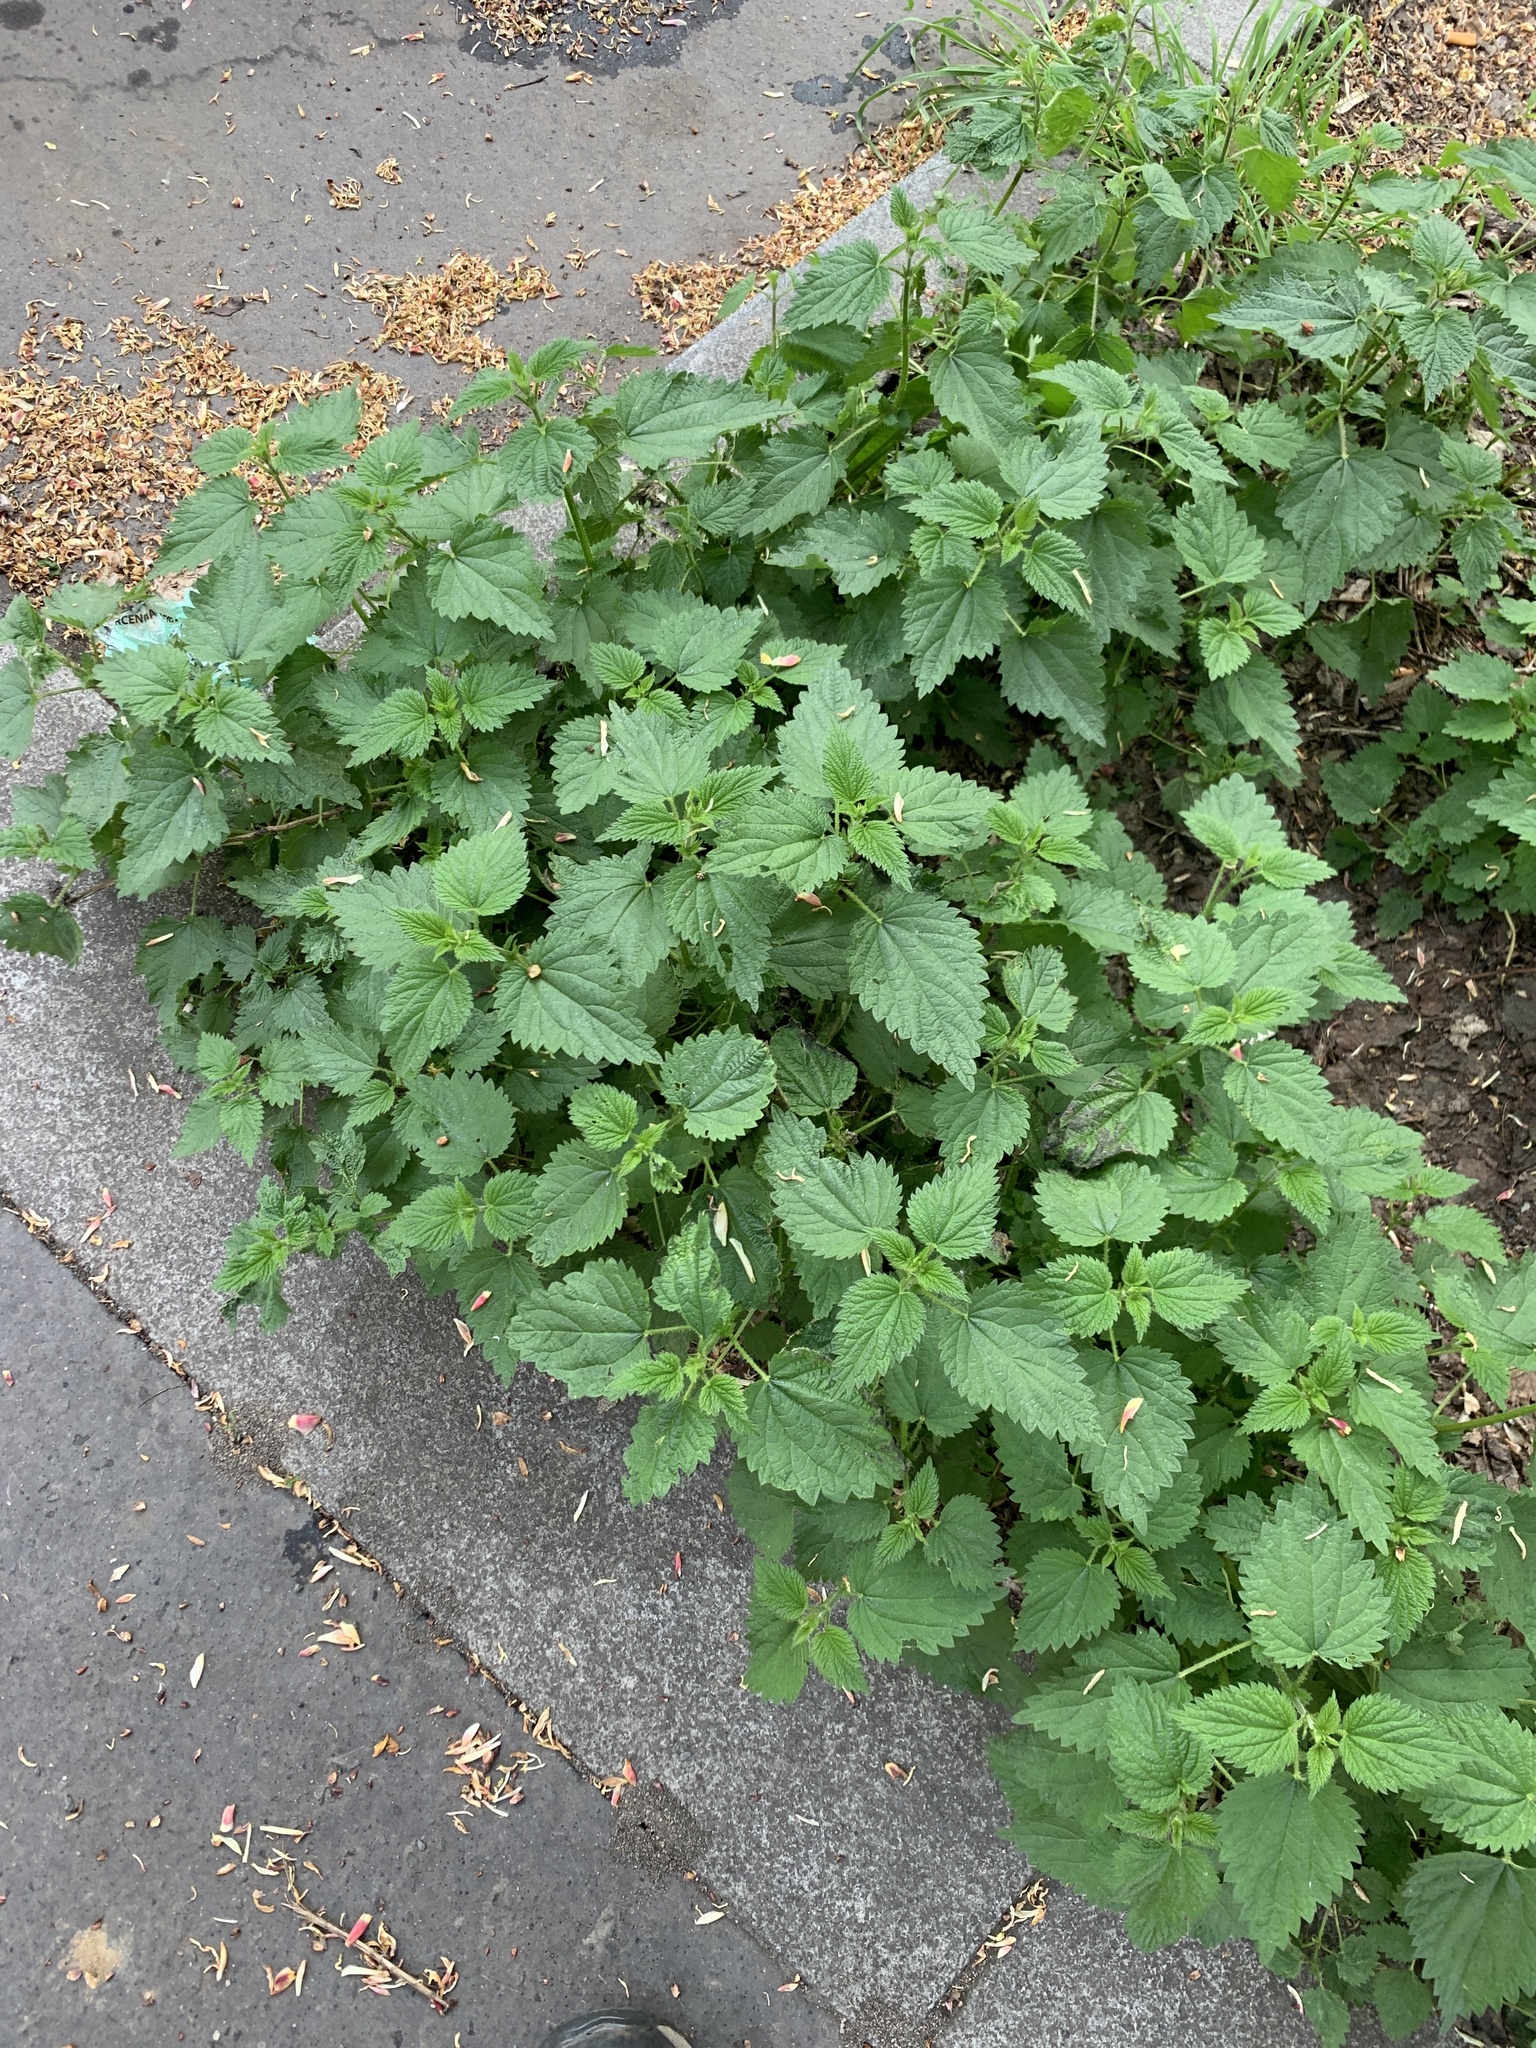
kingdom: Plantae
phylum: Tracheophyta
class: Magnoliopsida
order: Rosales
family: Urticaceae
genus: Urtica
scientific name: Urtica dioica
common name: Common nettle
